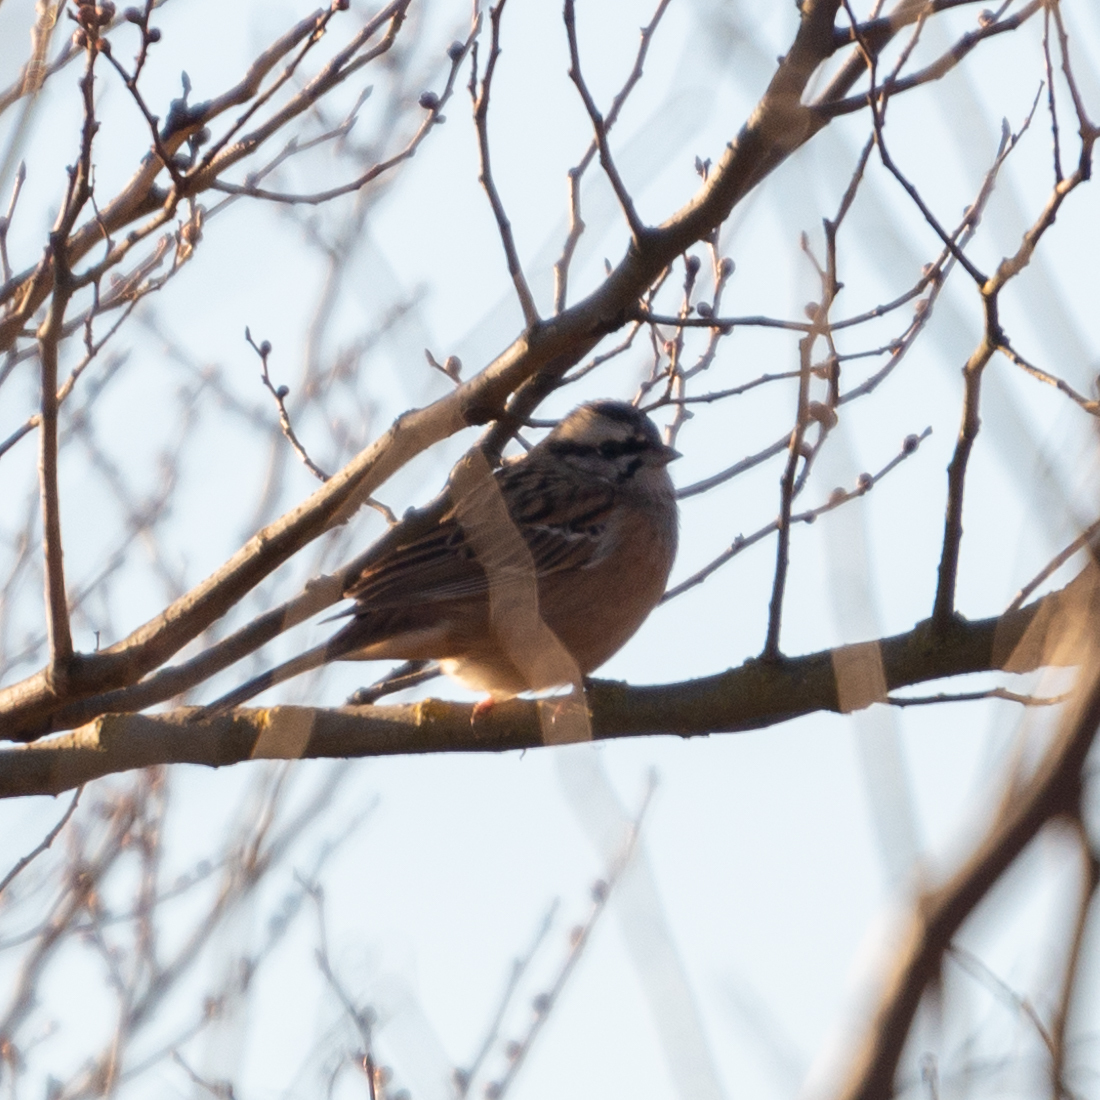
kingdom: Animalia
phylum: Chordata
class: Aves
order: Passeriformes
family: Emberizidae
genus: Emberiza
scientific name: Emberiza cia
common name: Rock bunting
